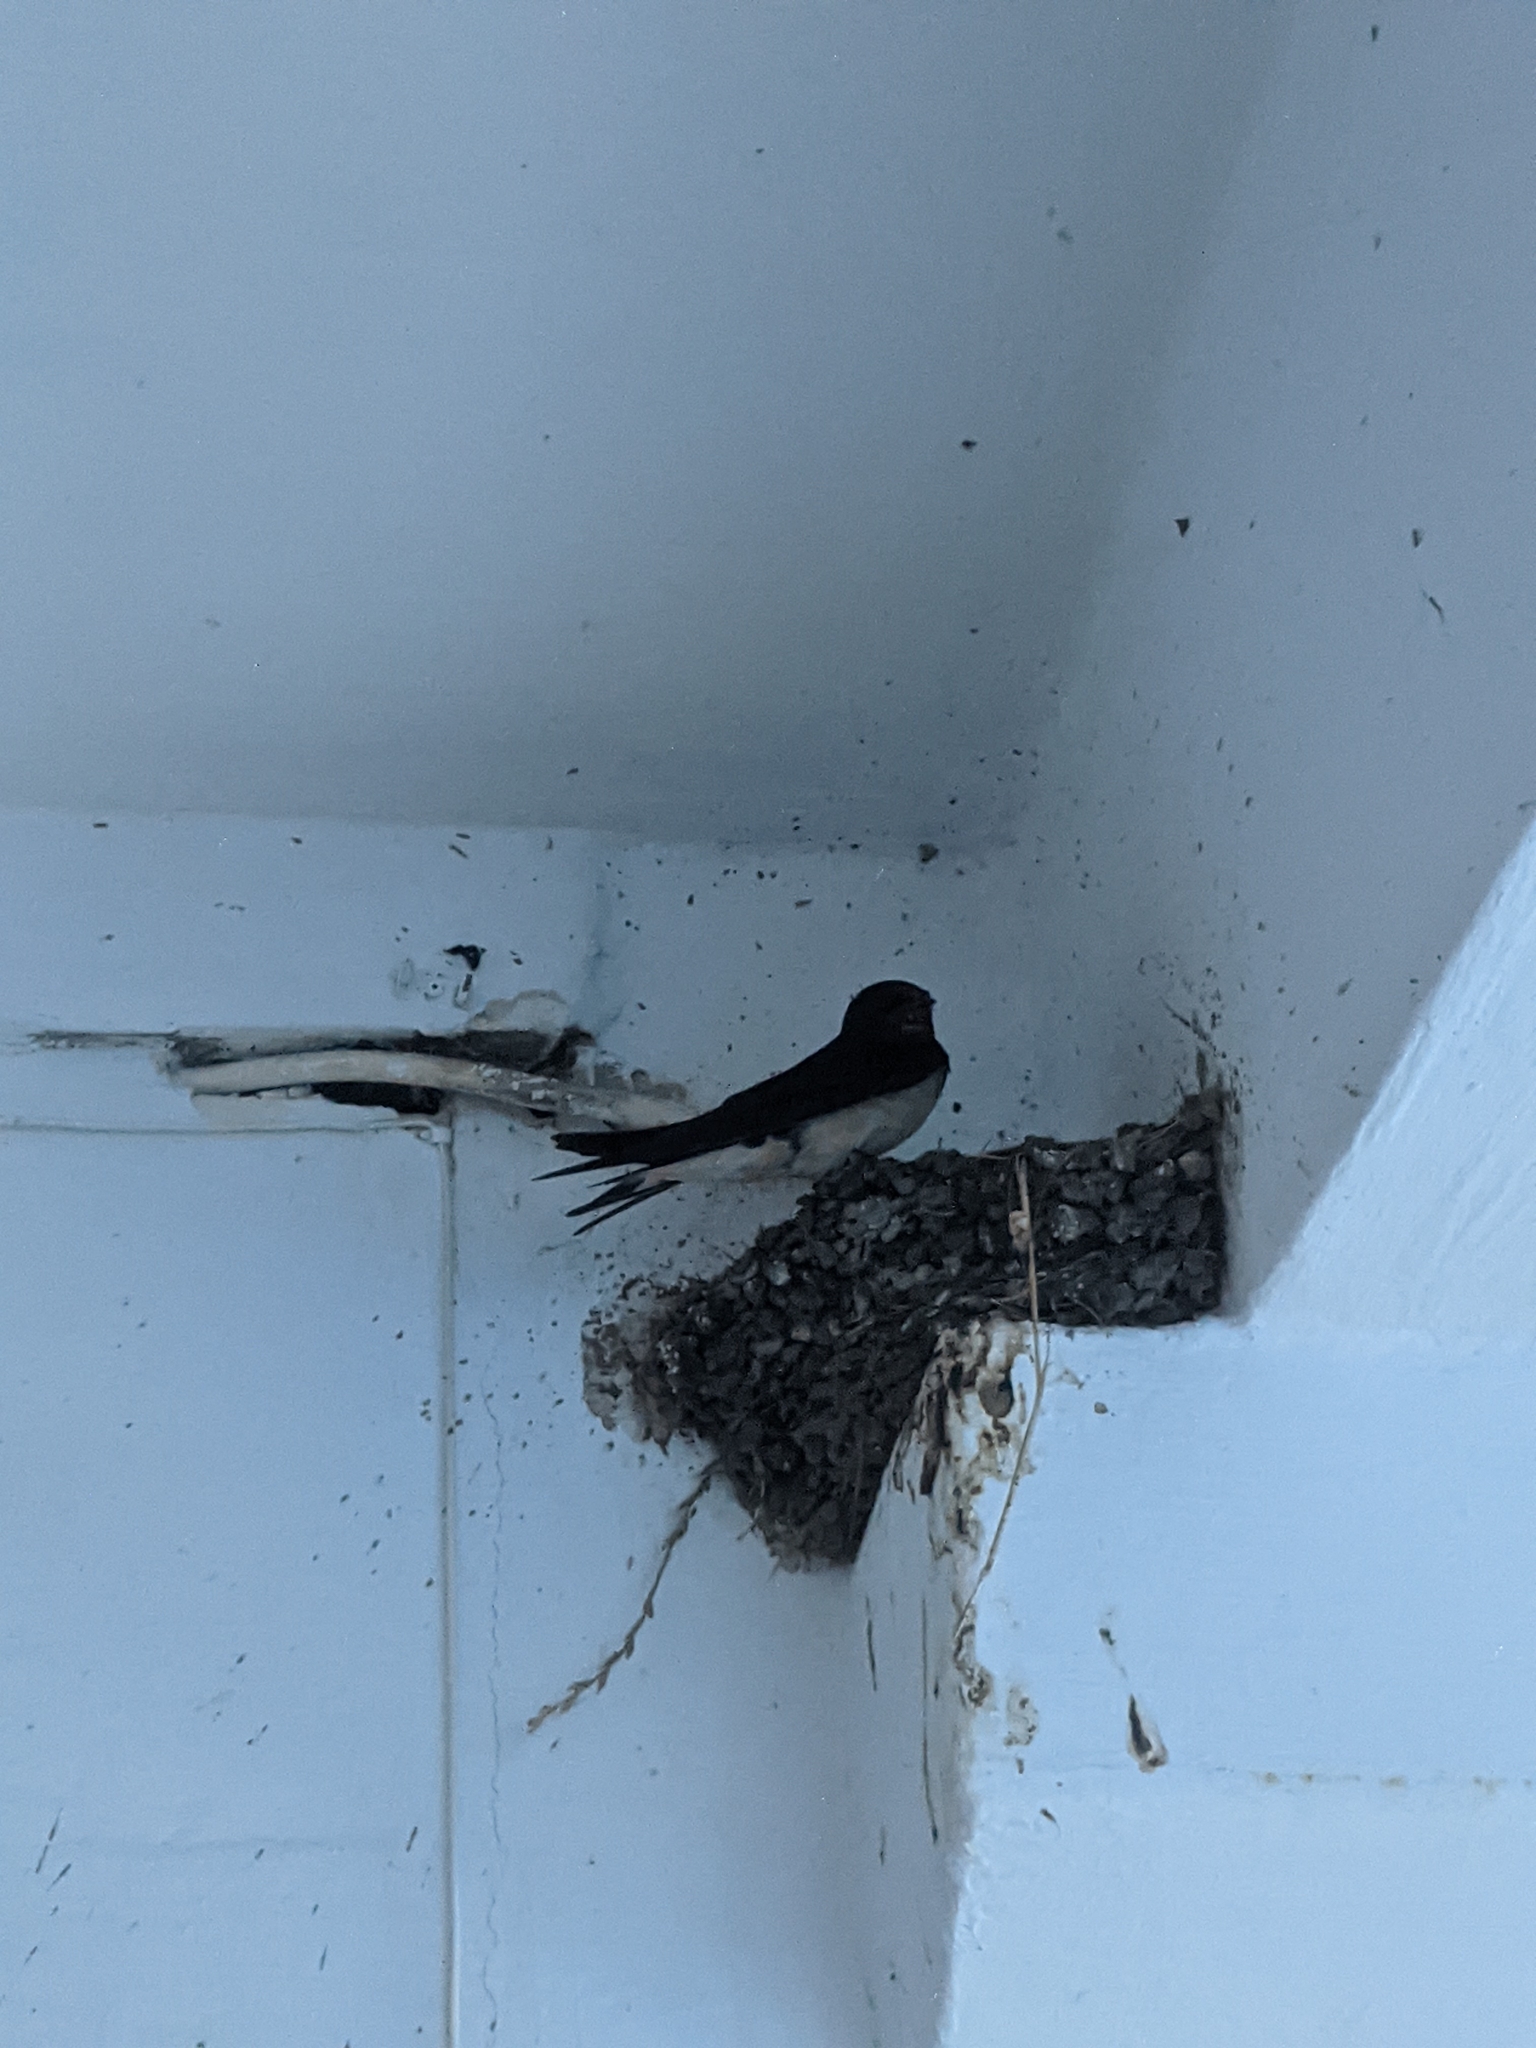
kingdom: Animalia
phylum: Chordata
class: Aves
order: Passeriformes
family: Hirundinidae
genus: Hirundo
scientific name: Hirundo rustica
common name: Barn swallow
